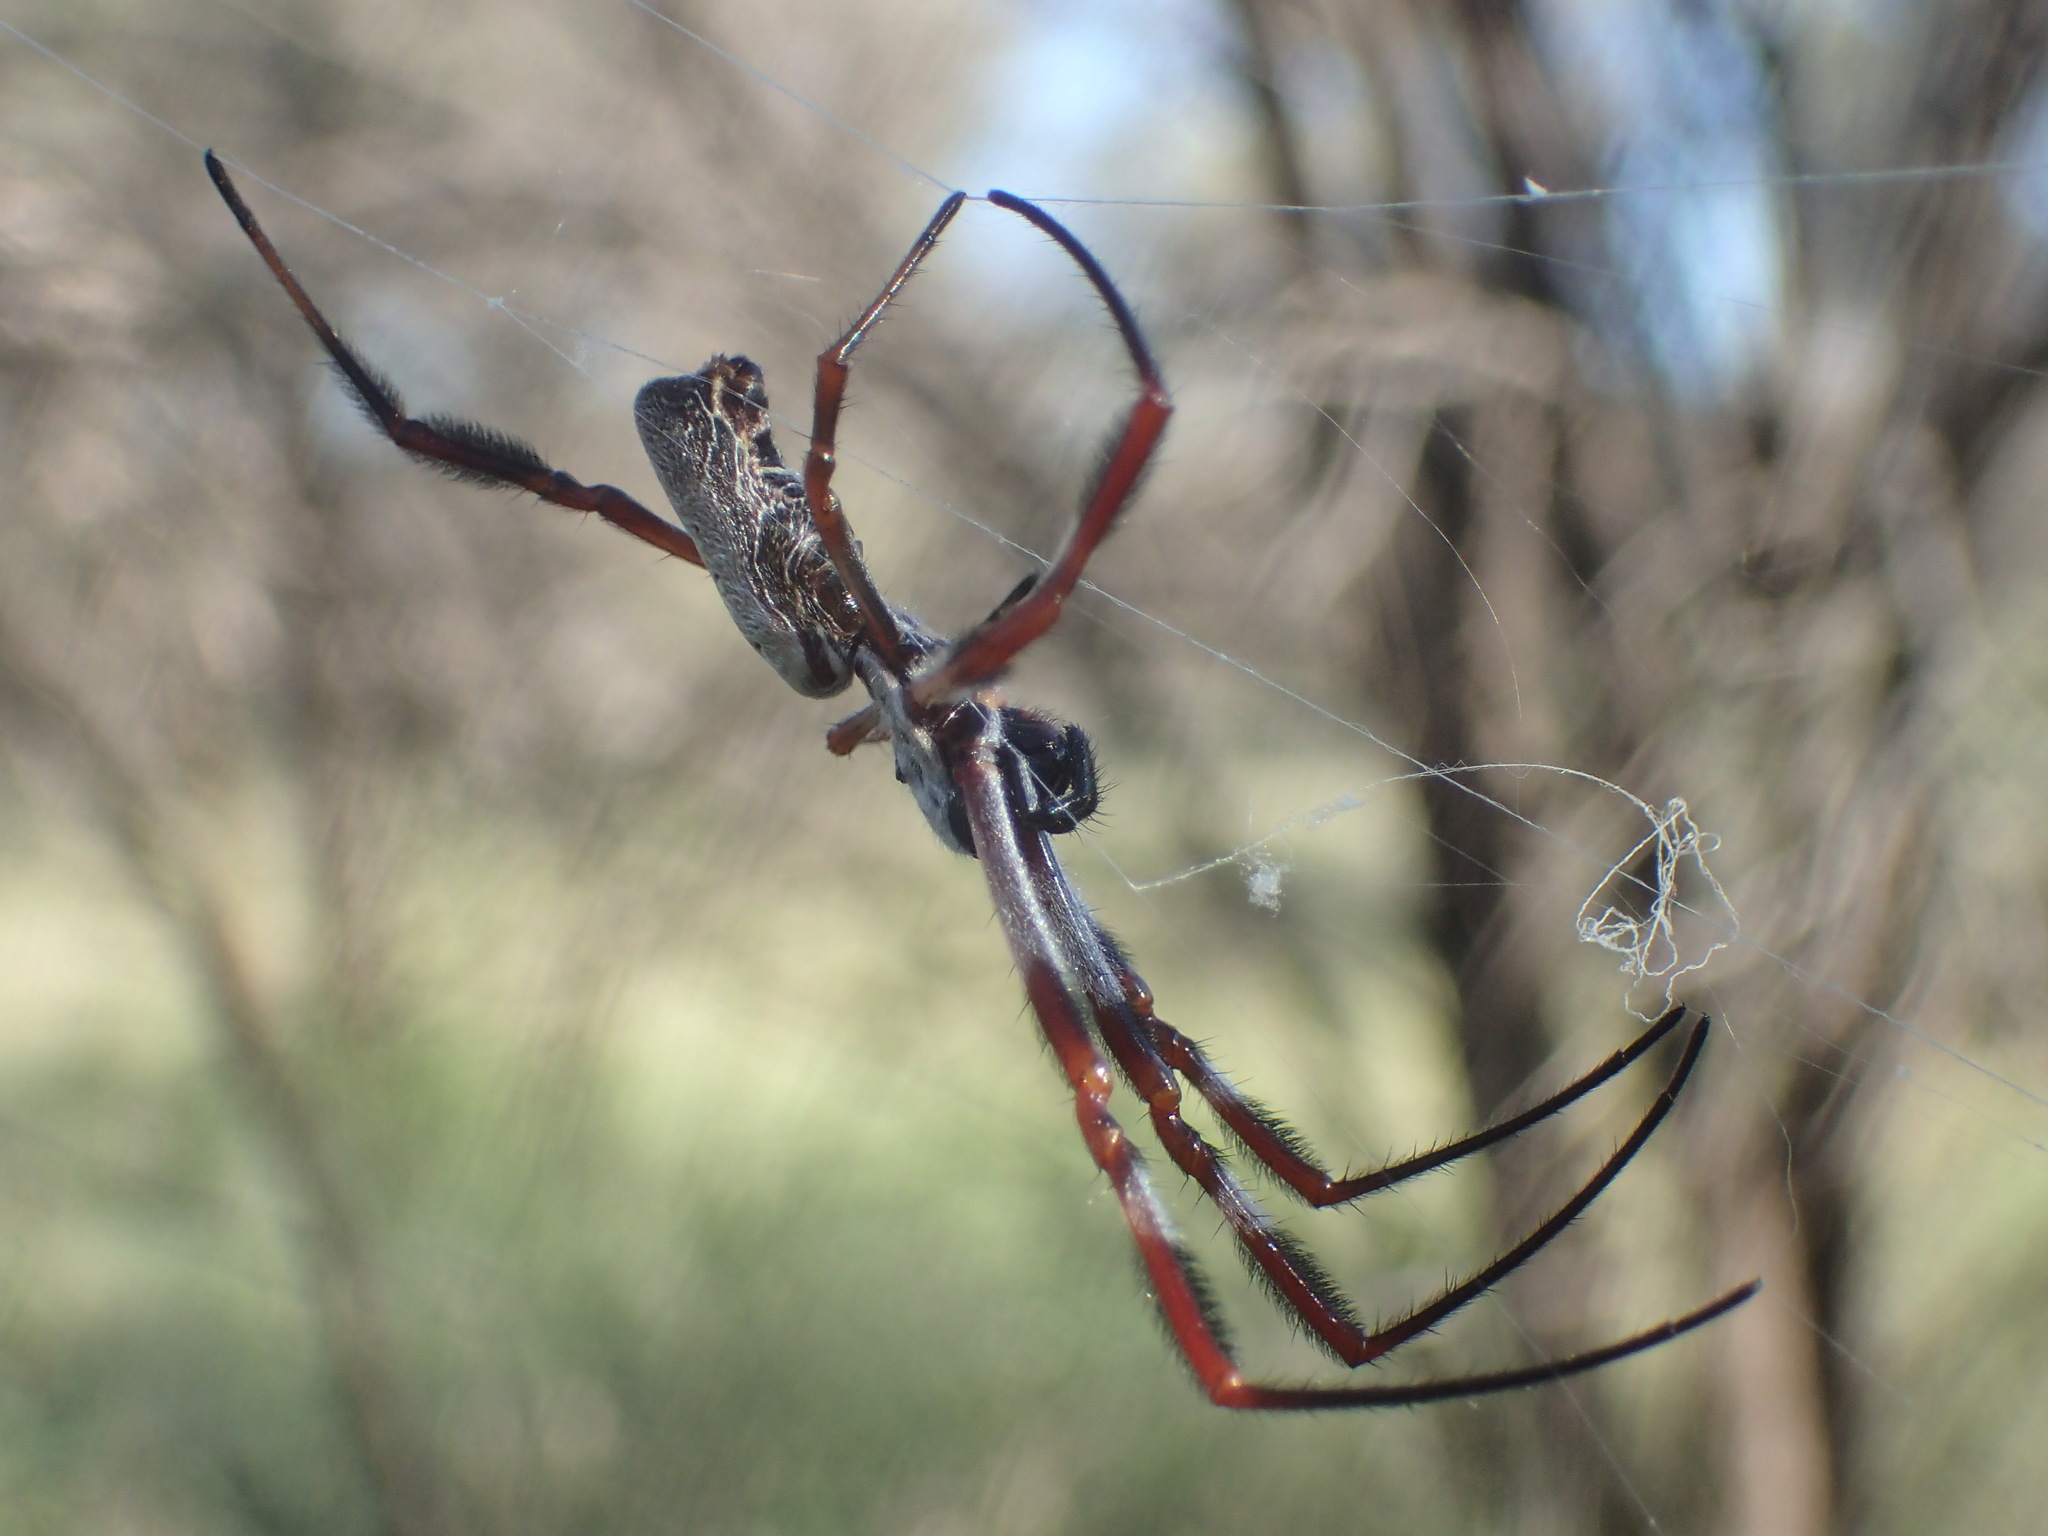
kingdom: Animalia
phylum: Arthropoda
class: Arachnida
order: Araneae
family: Araneidae
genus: Trichonephila
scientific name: Trichonephila edulis
